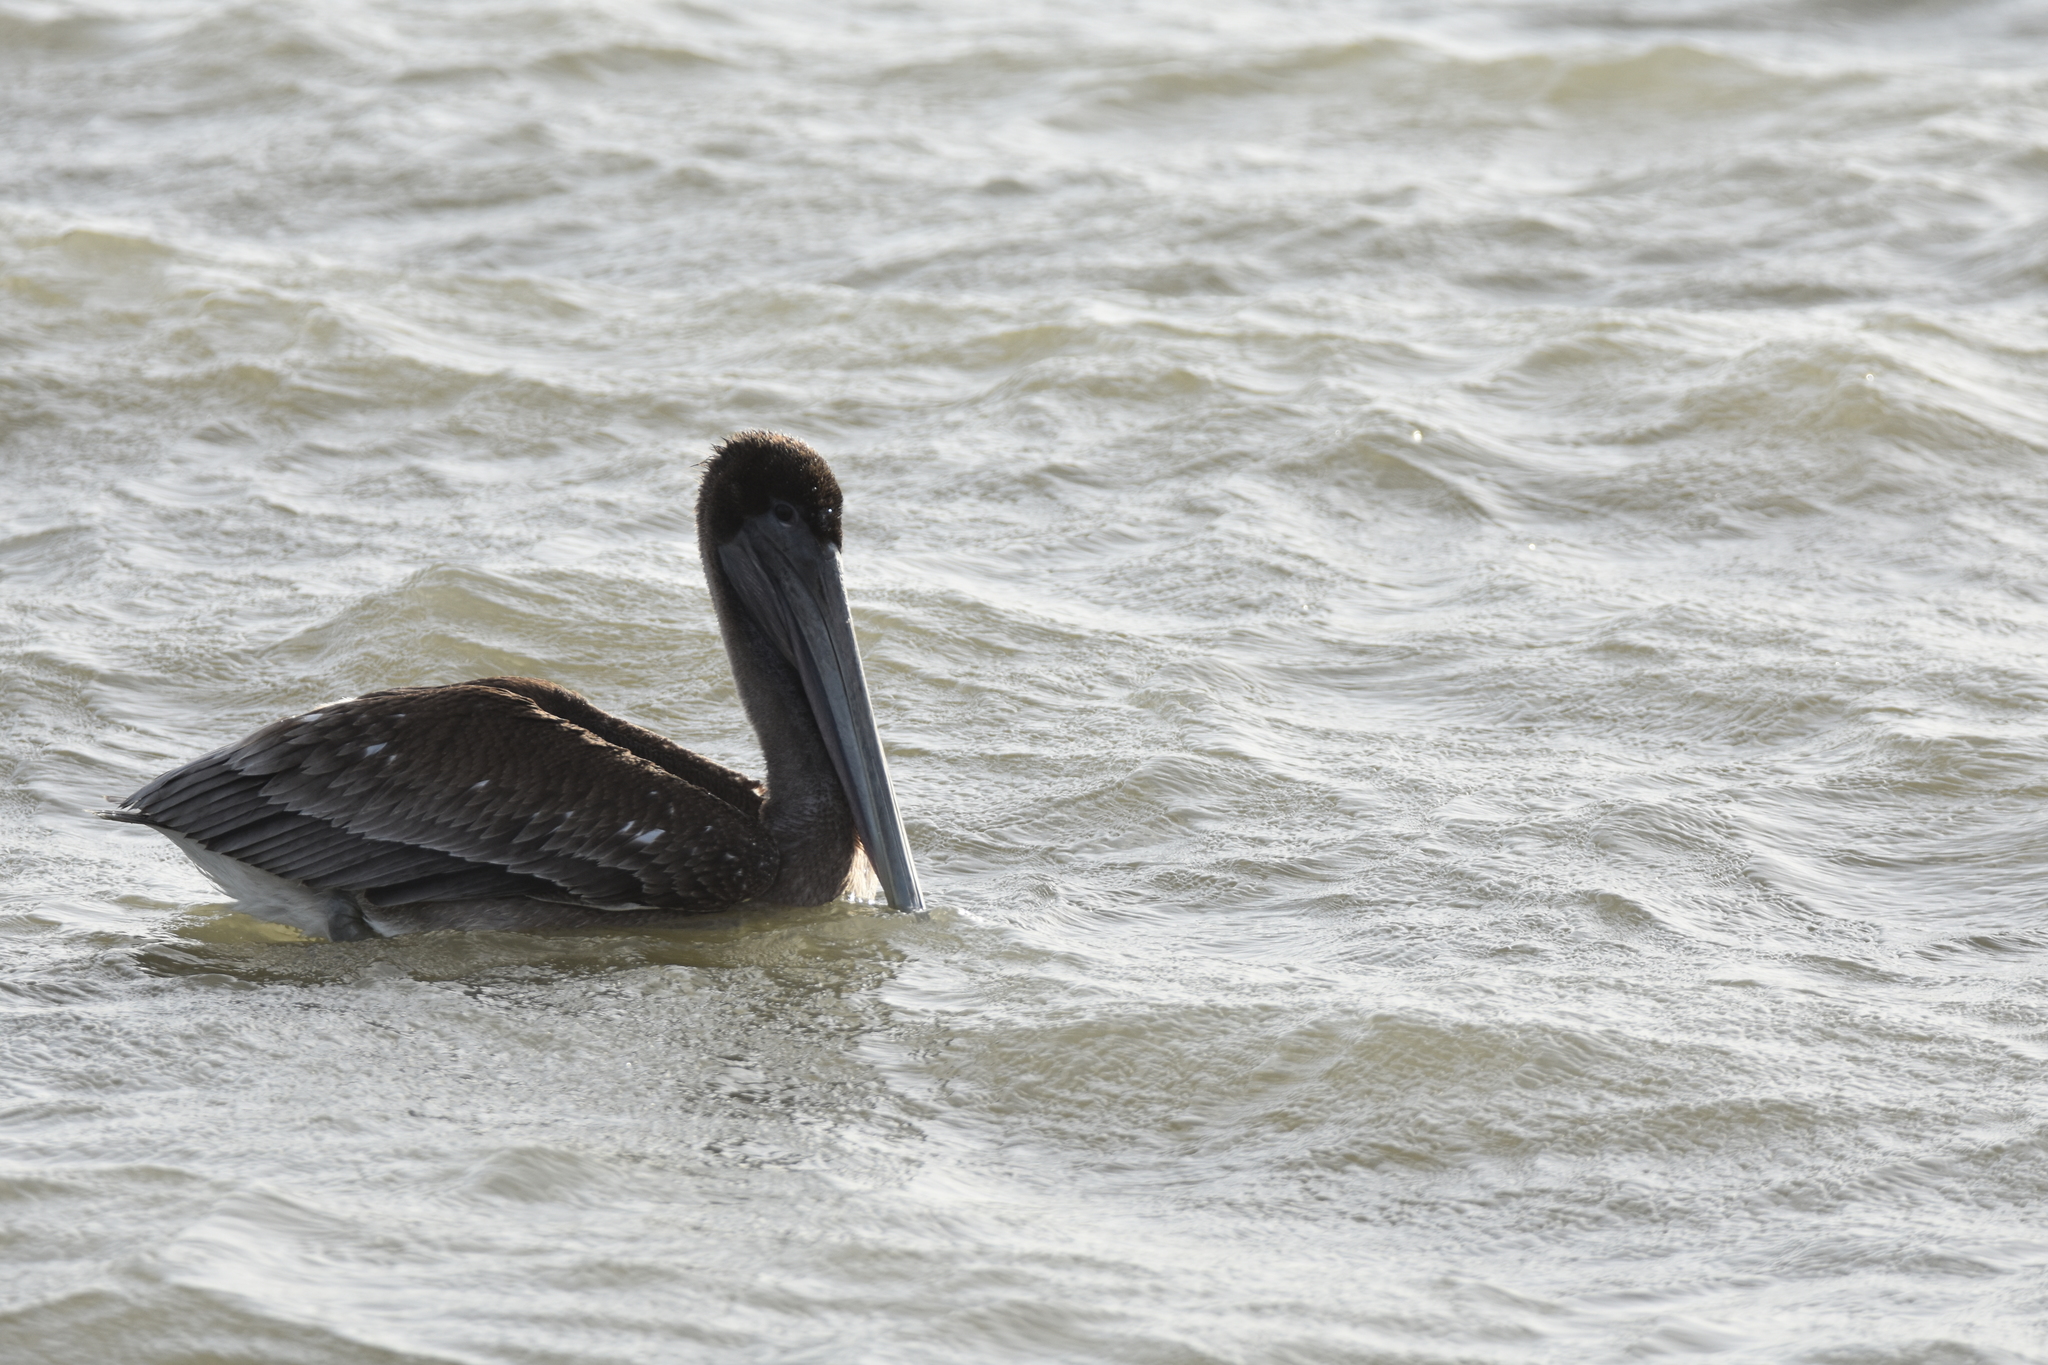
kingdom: Animalia
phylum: Chordata
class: Aves
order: Pelecaniformes
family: Pelecanidae
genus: Pelecanus
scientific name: Pelecanus occidentalis
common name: Brown pelican
